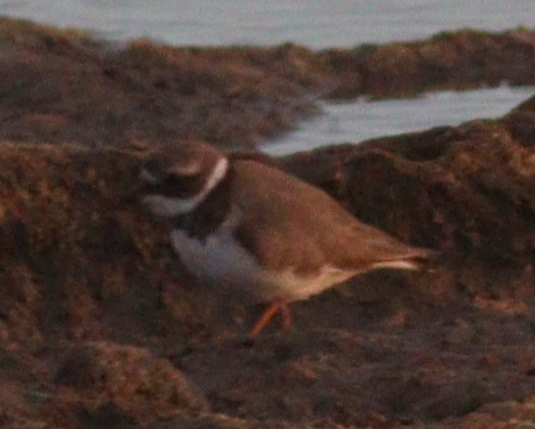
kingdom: Animalia
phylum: Chordata
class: Aves
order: Charadriiformes
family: Charadriidae
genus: Charadrius
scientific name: Charadrius hiaticula
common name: Common ringed plover
